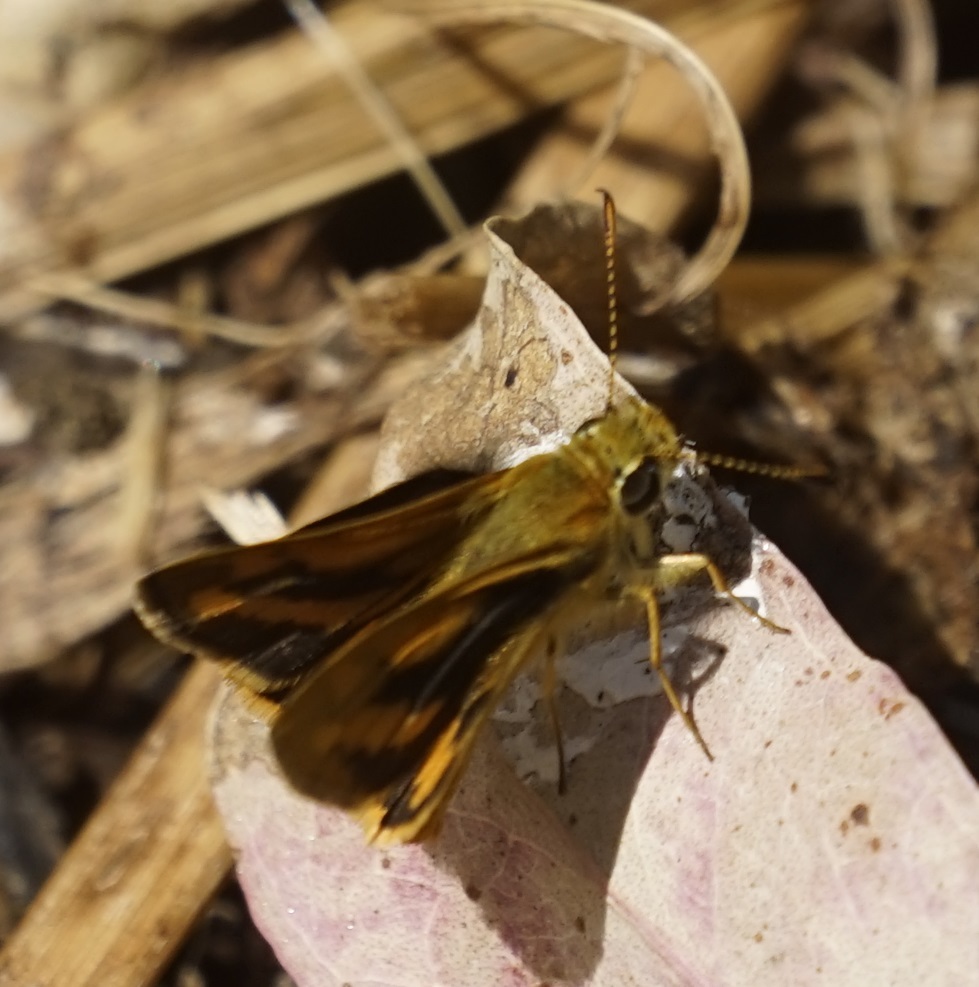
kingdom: Animalia
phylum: Arthropoda
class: Insecta
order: Lepidoptera
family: Hesperiidae
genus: Ocybadistes
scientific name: Ocybadistes walkeri
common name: Yellow-banded dart
